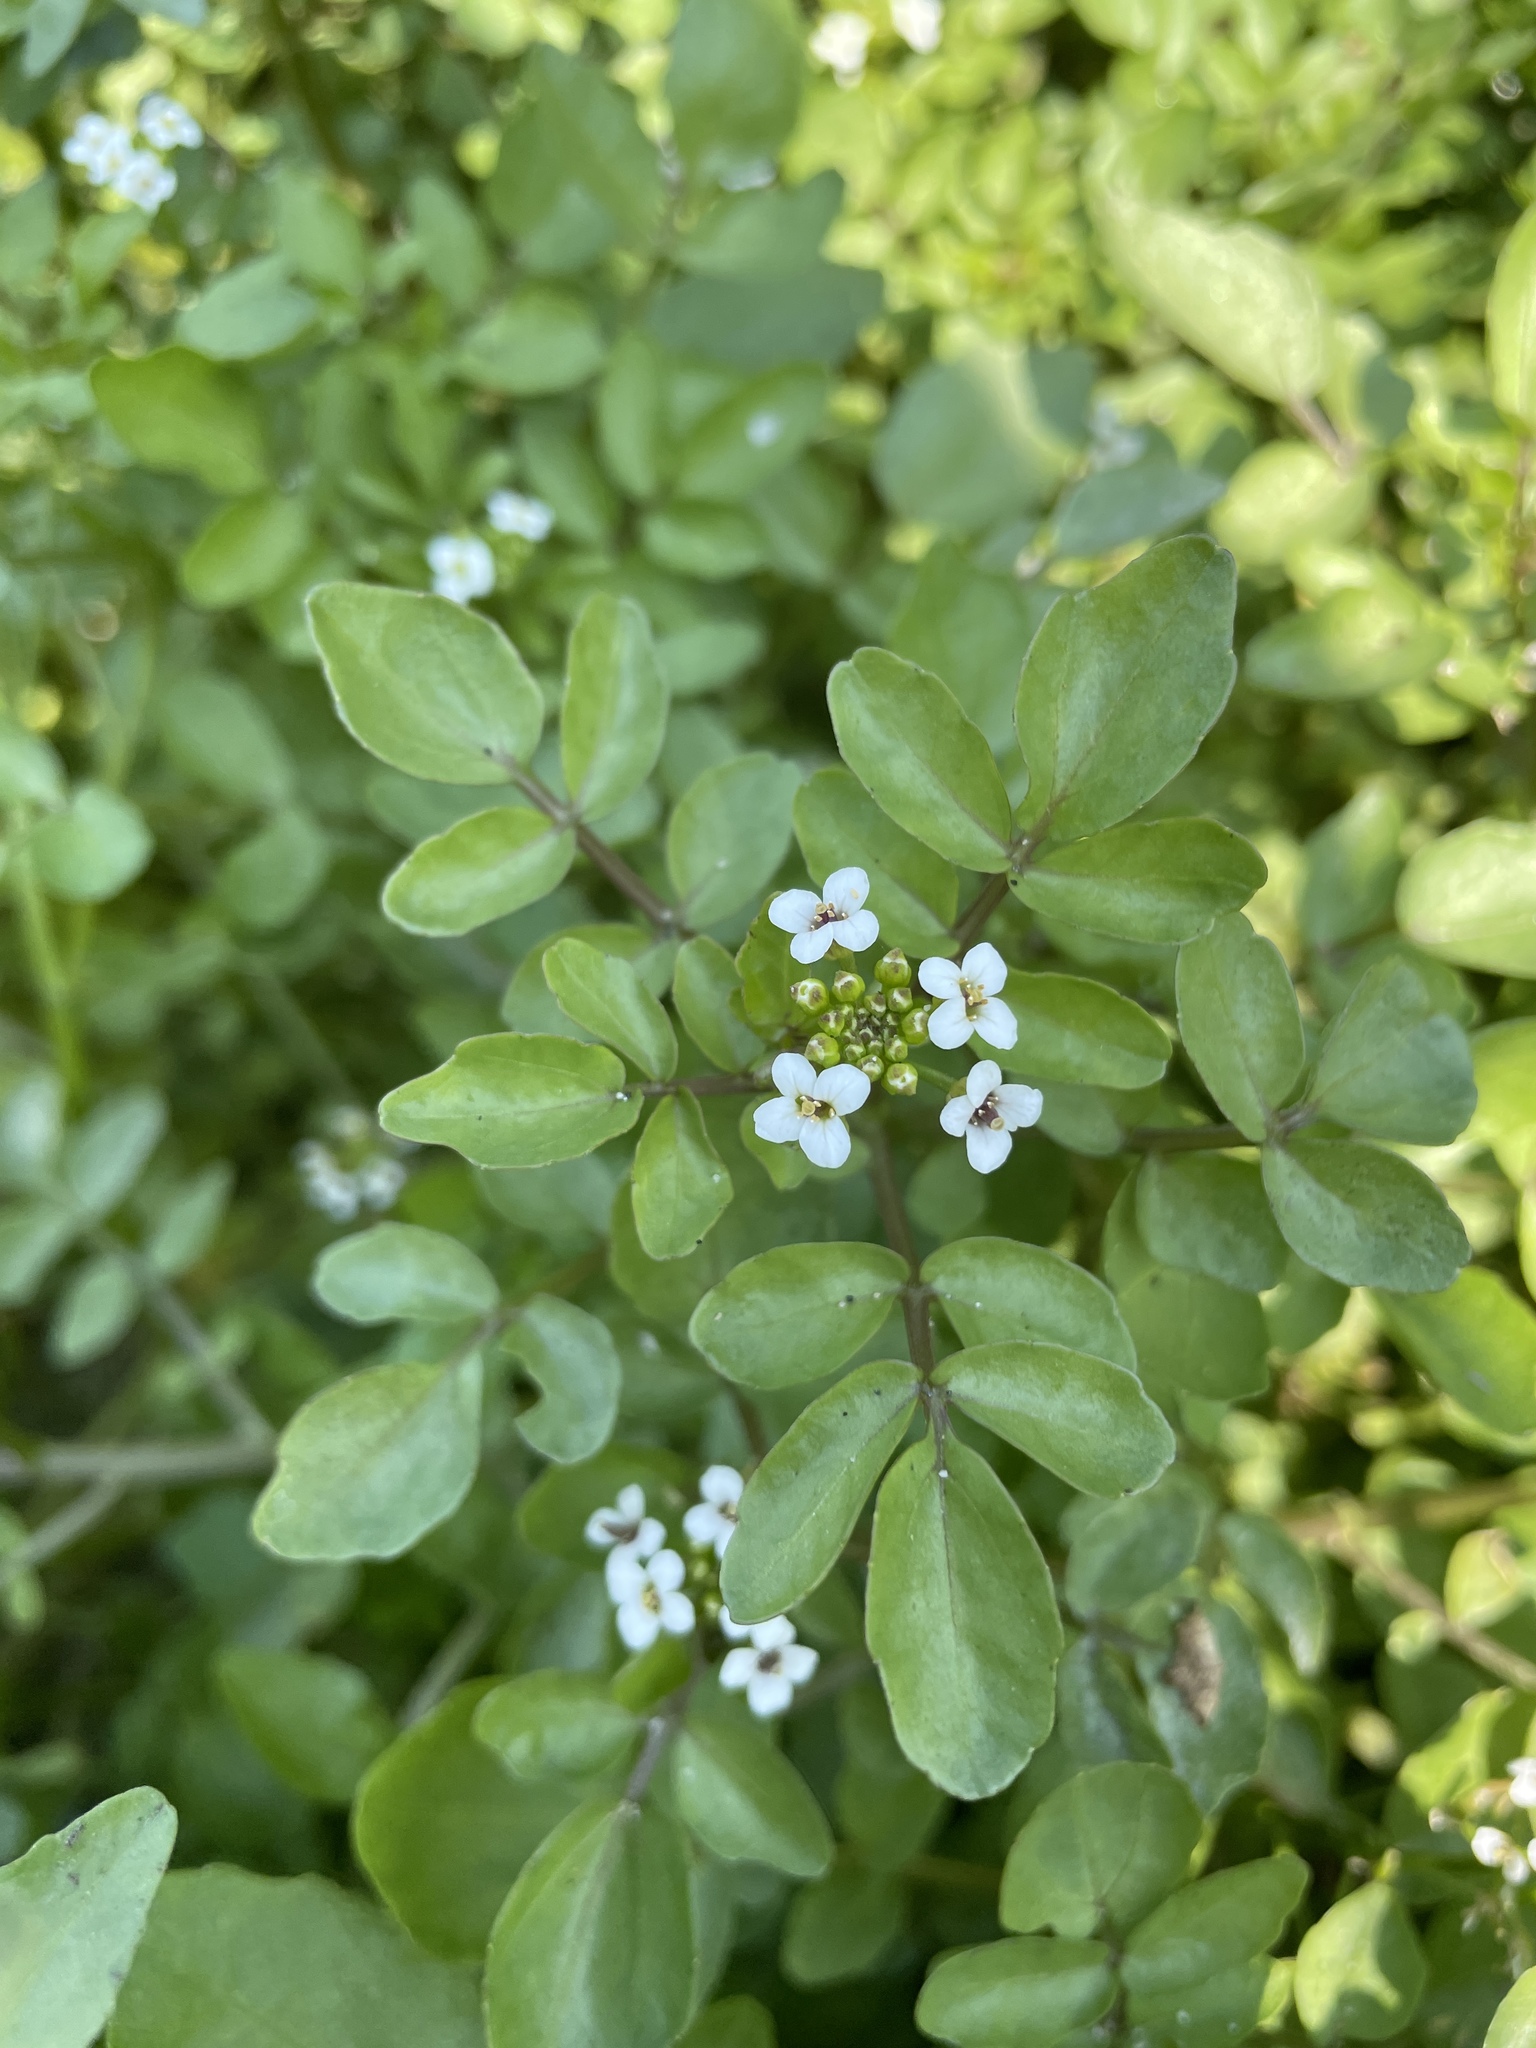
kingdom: Plantae
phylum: Tracheophyta
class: Magnoliopsida
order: Brassicales
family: Brassicaceae
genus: Nasturtium
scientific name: Nasturtium officinale
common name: Watercress
